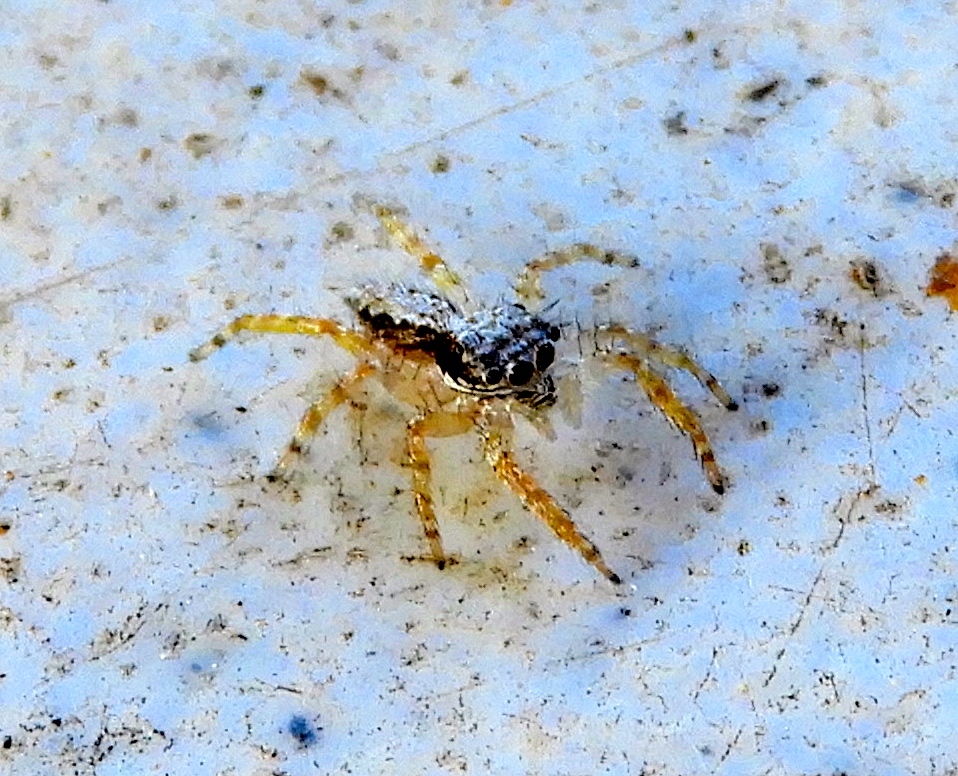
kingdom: Animalia
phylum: Arthropoda
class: Arachnida
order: Araneae
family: Salticidae
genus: Balmaceda
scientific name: Balmaceda
